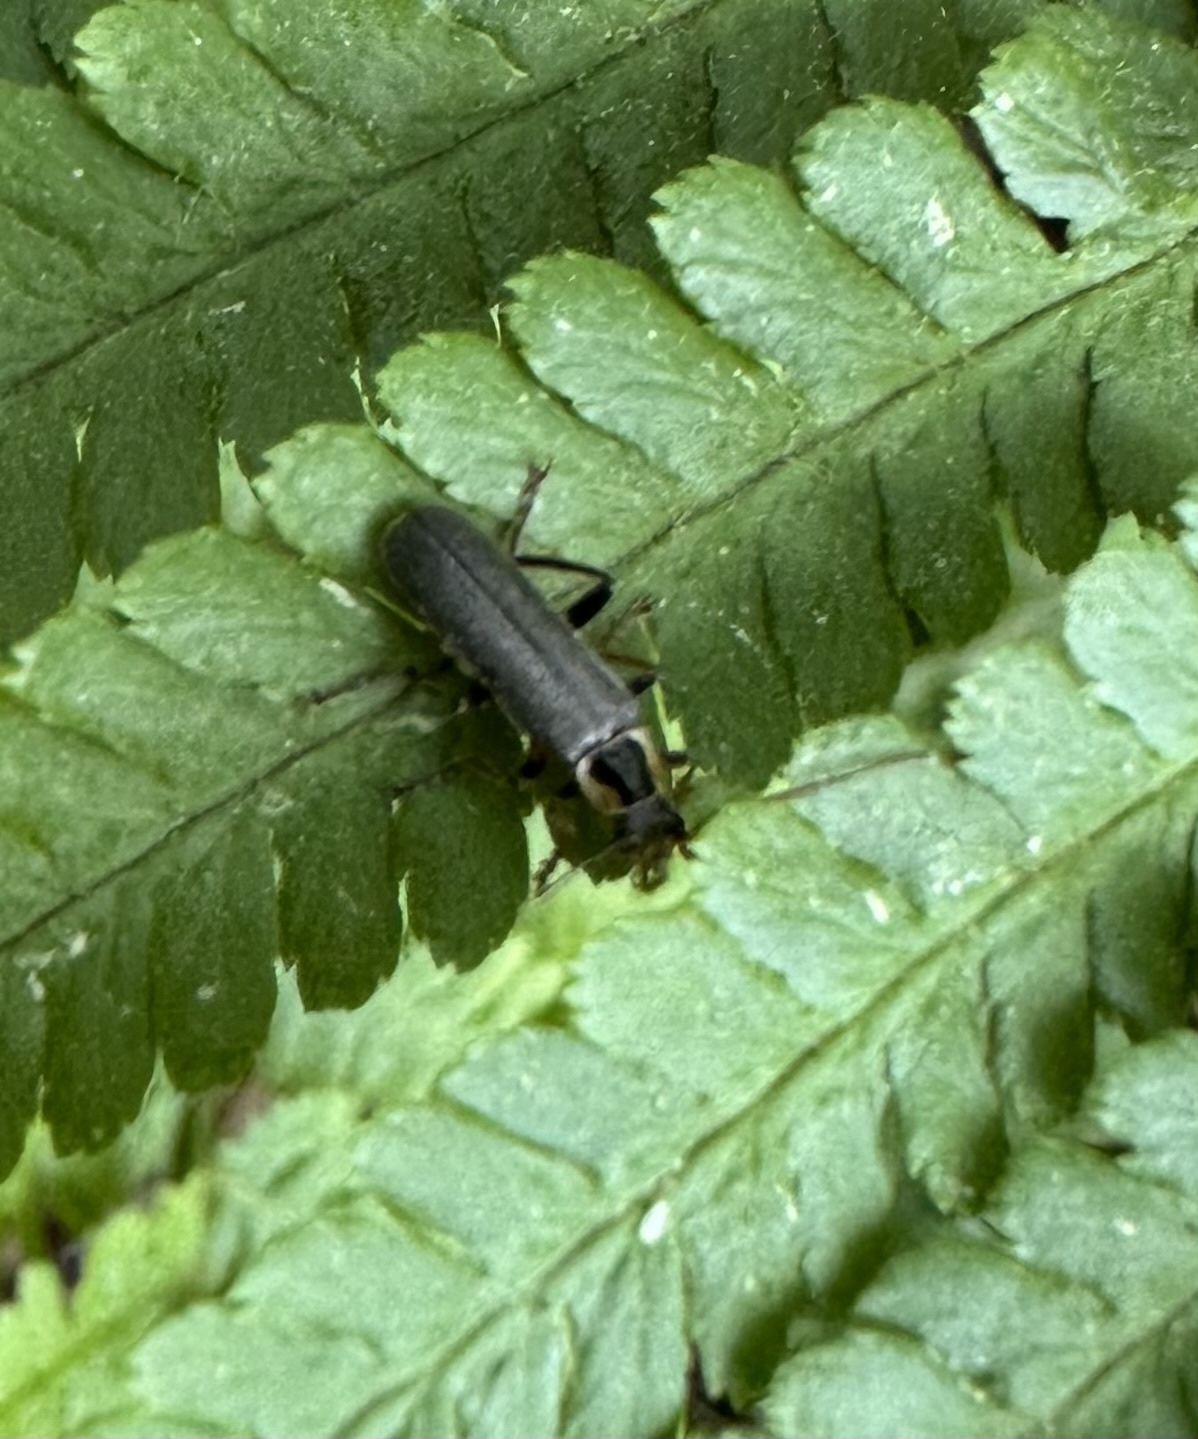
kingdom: Animalia
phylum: Arthropoda
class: Insecta
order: Coleoptera
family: Cantharidae
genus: Cantharis
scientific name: Cantharis nigricans
